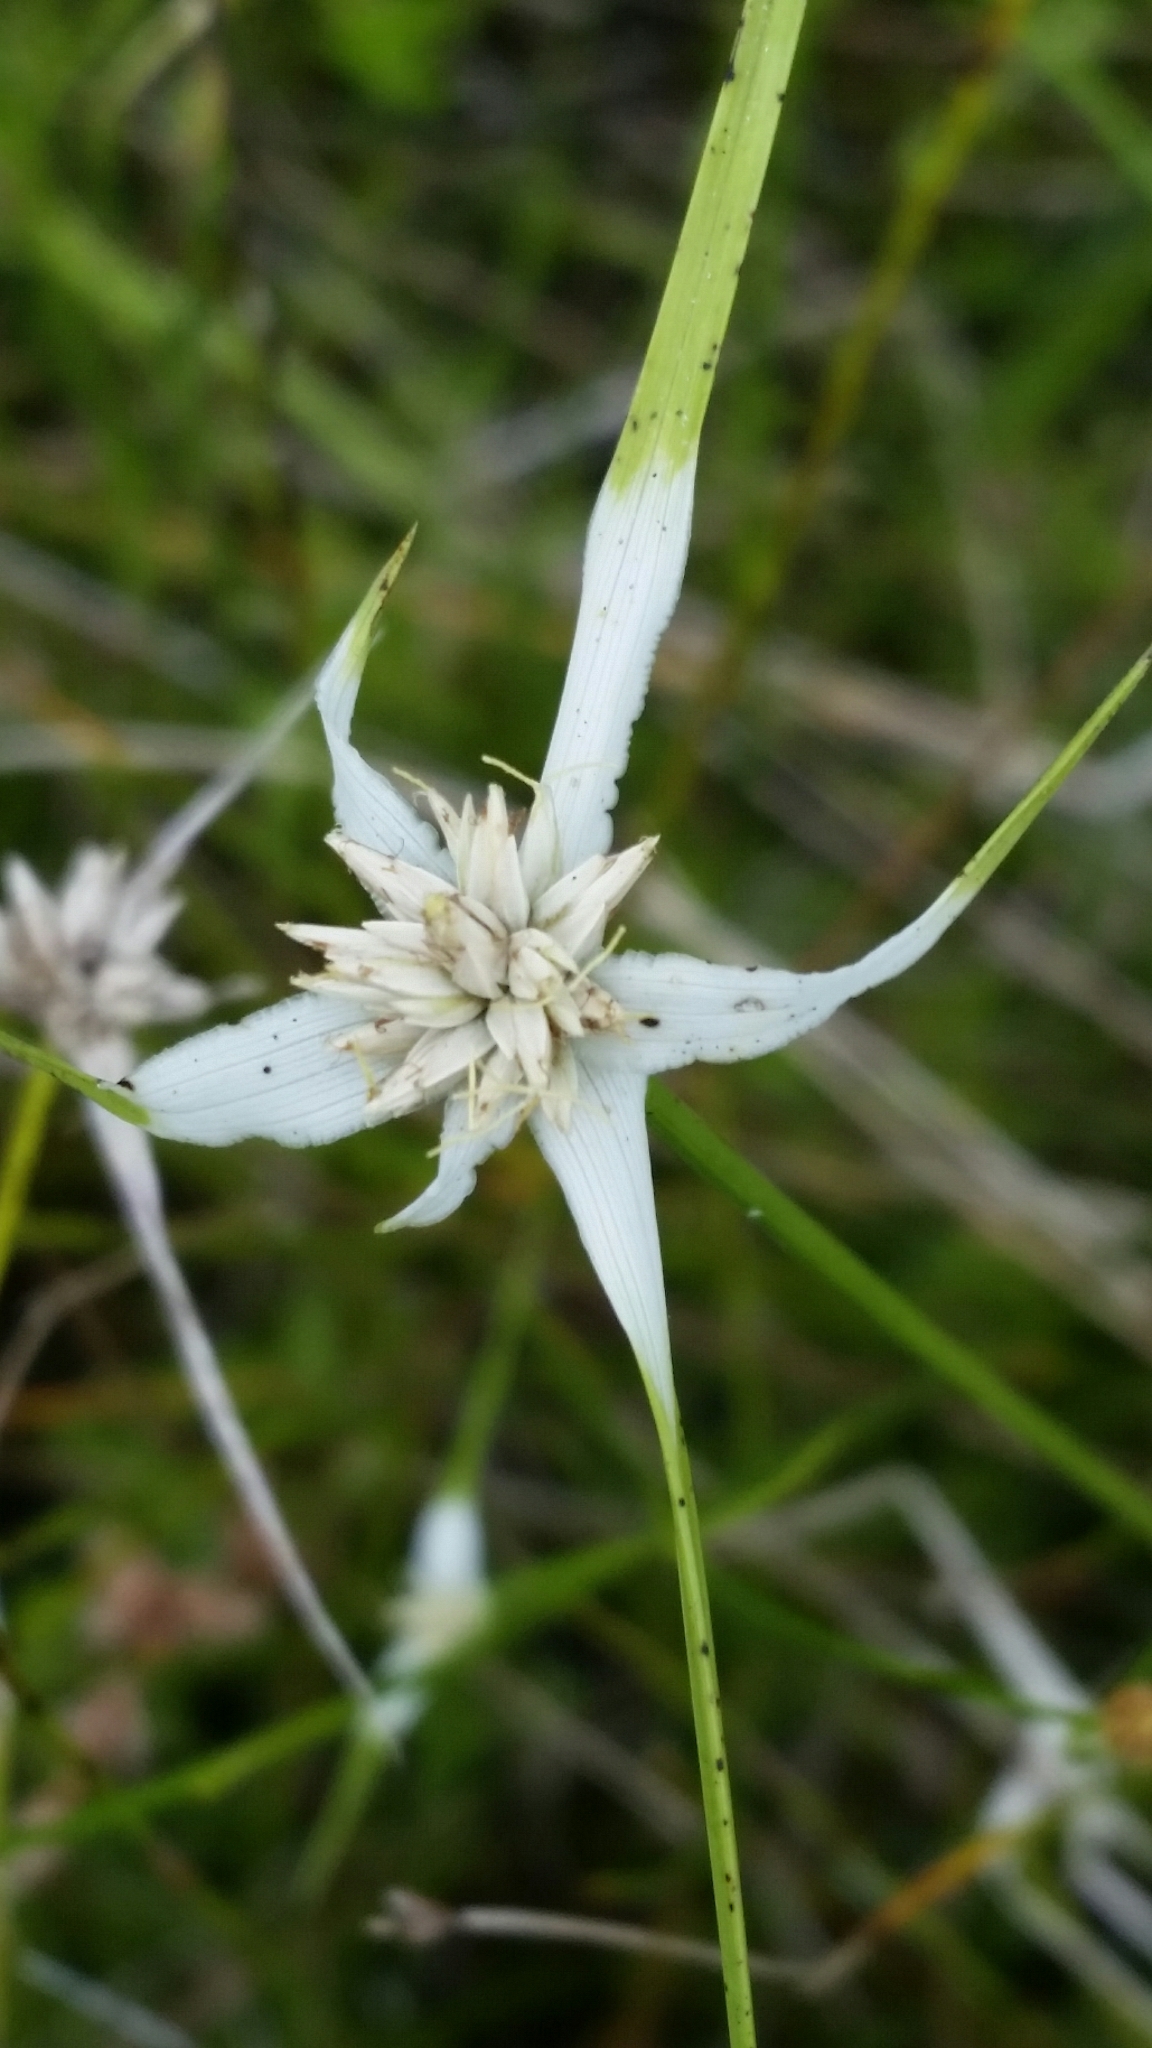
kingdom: Plantae
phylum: Tracheophyta
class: Liliopsida
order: Poales
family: Cyperaceae
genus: Rhynchospora
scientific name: Rhynchospora colorata
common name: Star sedge
